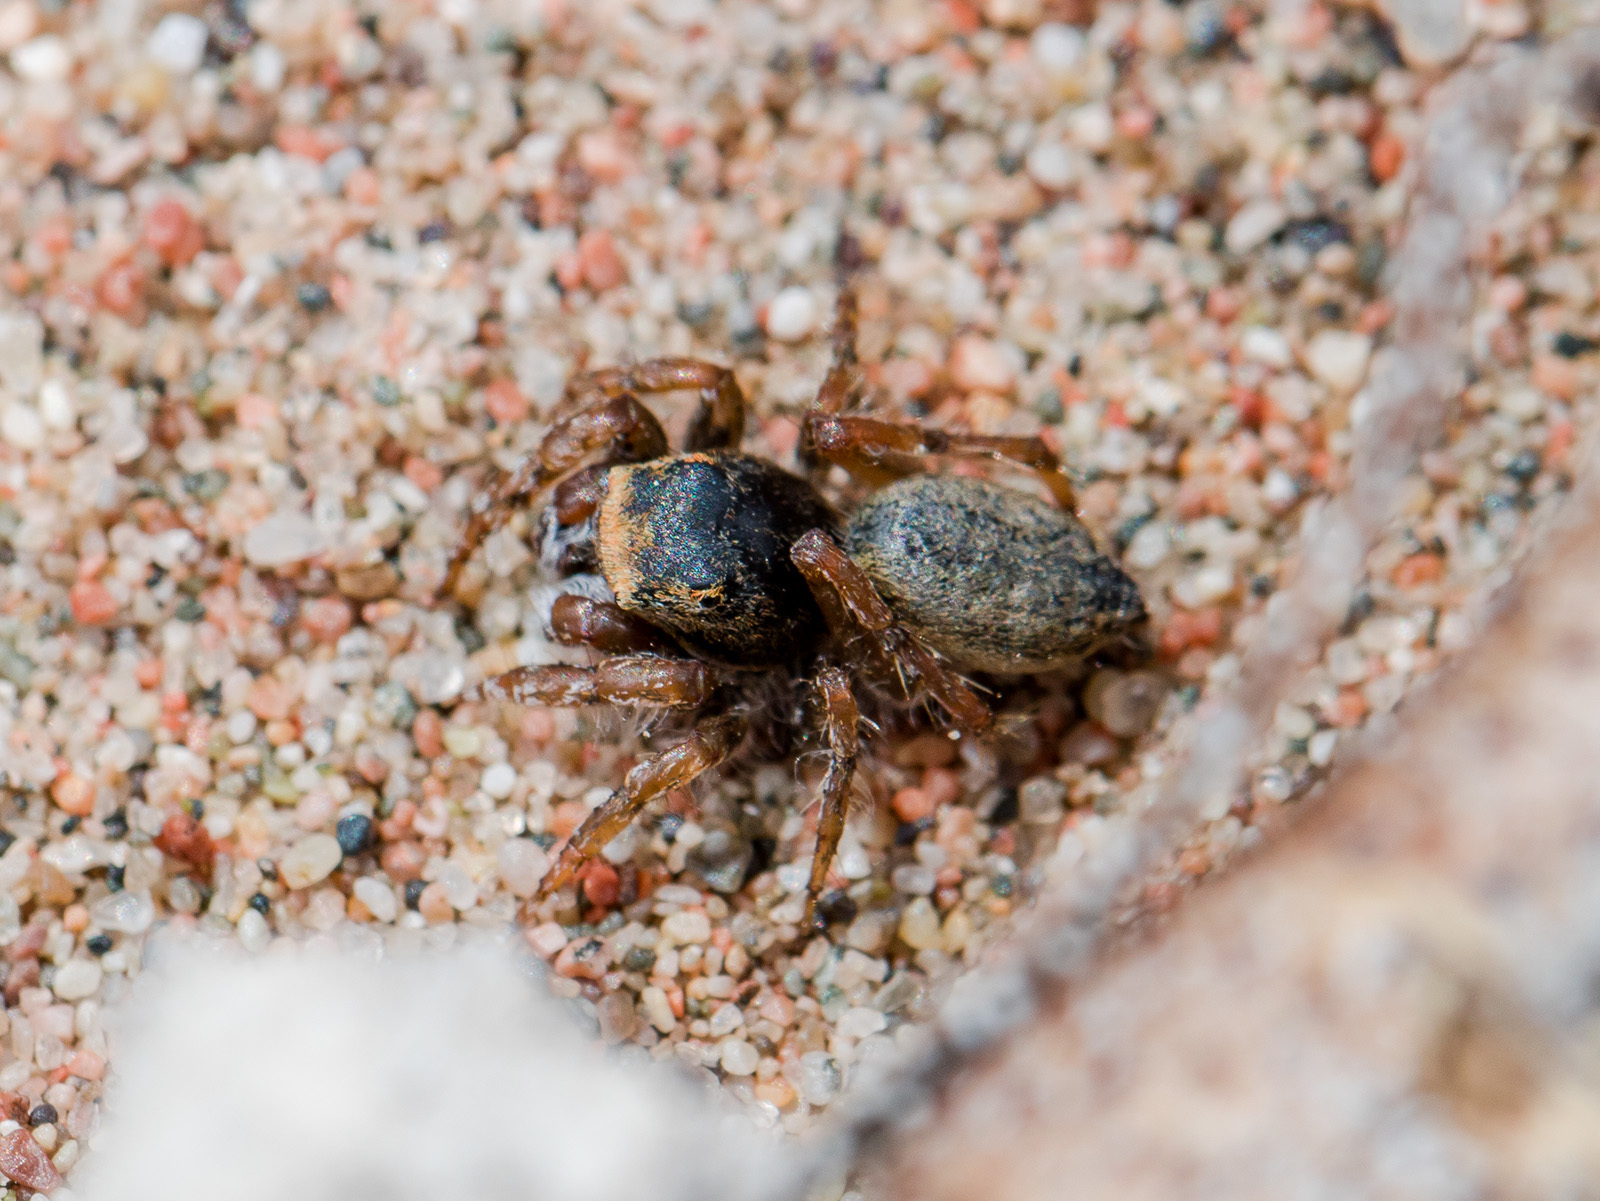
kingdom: Animalia
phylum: Arthropoda
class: Arachnida
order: Araneae
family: Salticidae
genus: Yllenus
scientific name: Yllenus uiguricus
